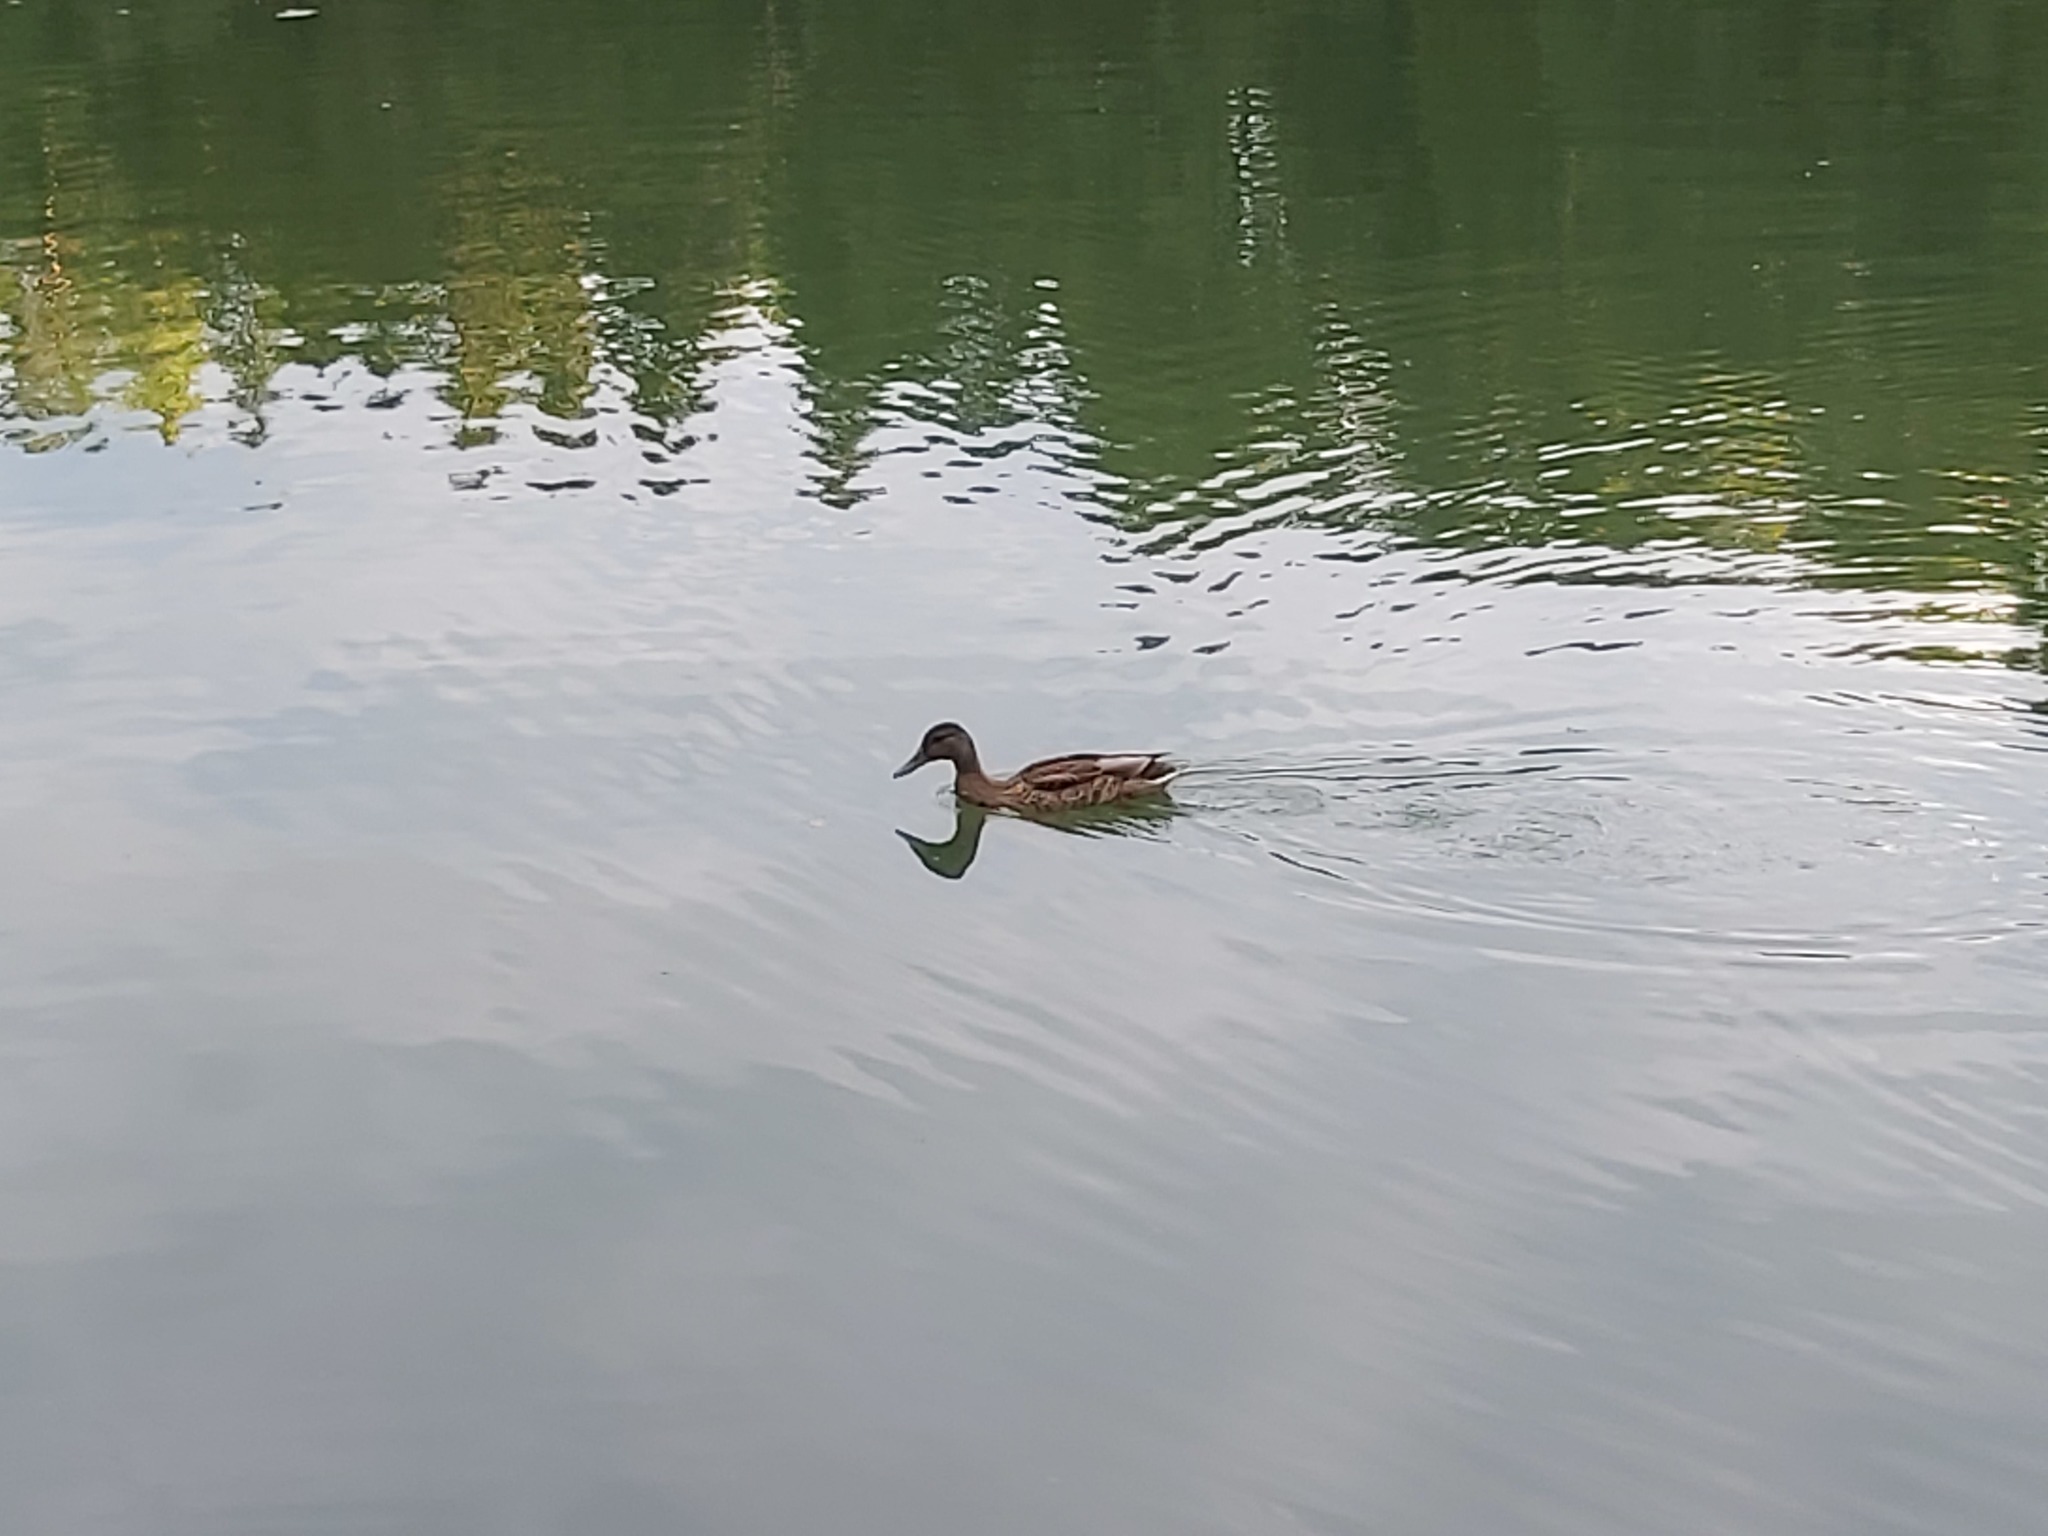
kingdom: Animalia
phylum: Chordata
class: Aves
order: Anseriformes
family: Anatidae
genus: Anas
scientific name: Anas platyrhynchos
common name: Mallard
